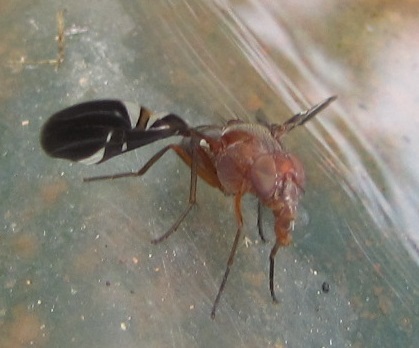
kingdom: Animalia
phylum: Arthropoda
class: Insecta
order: Diptera
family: Ulidiidae
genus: Delphinia
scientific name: Delphinia picta
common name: Common picture-winged fly
